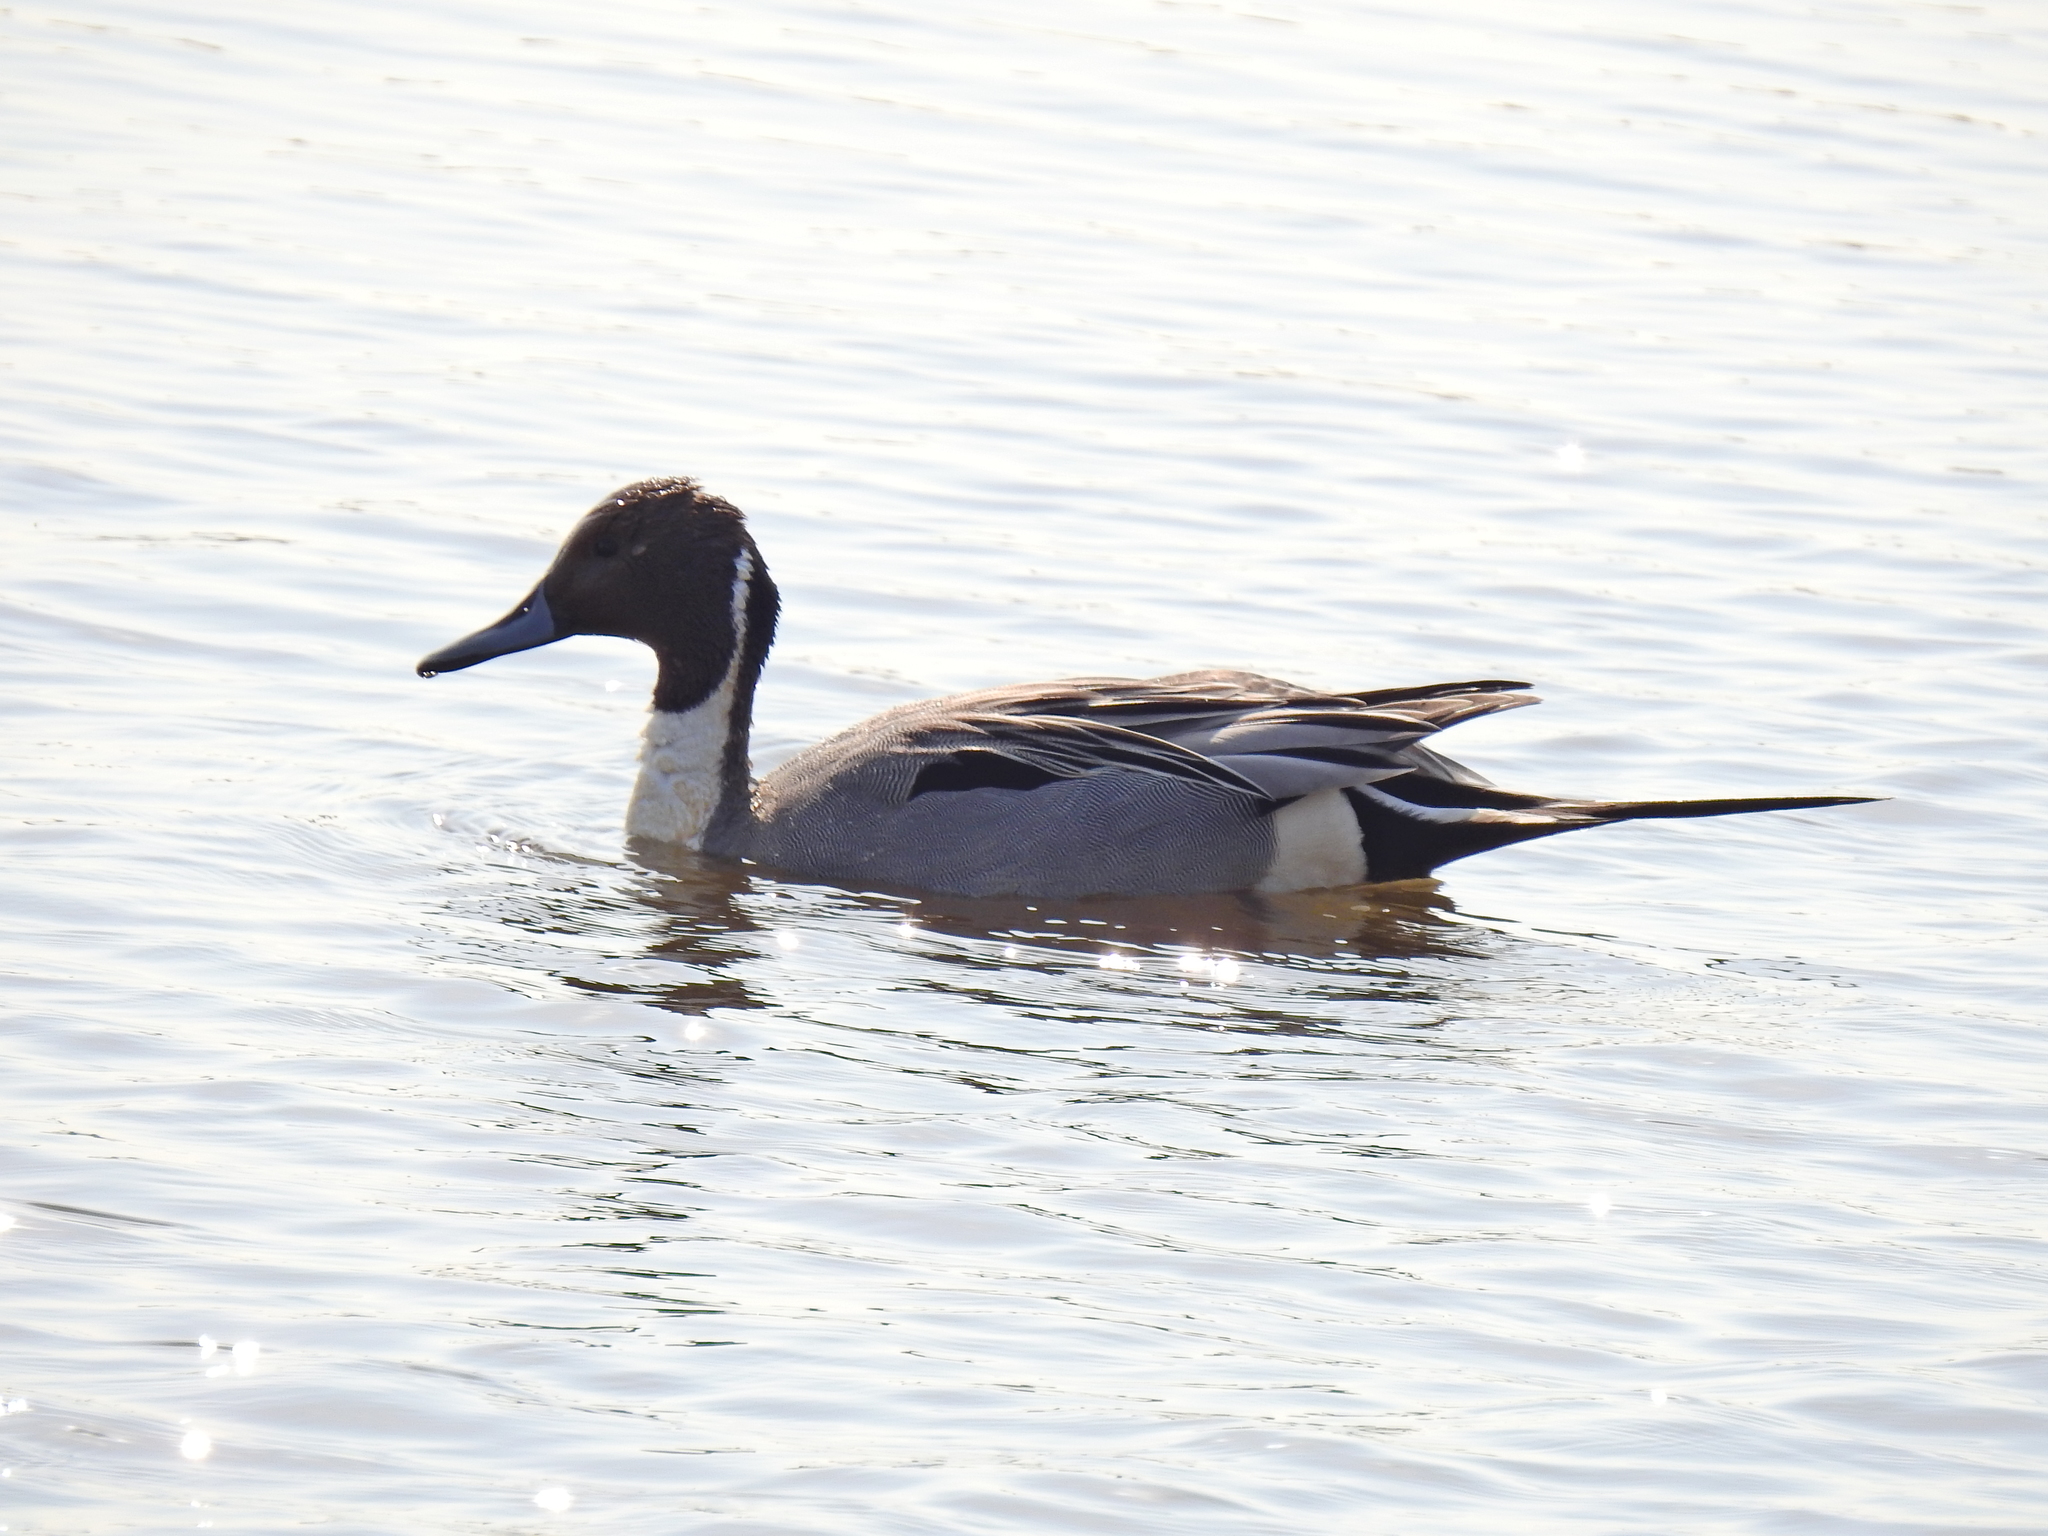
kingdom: Animalia
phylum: Chordata
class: Aves
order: Anseriformes
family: Anatidae
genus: Anas
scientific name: Anas acuta
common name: Northern pintail
